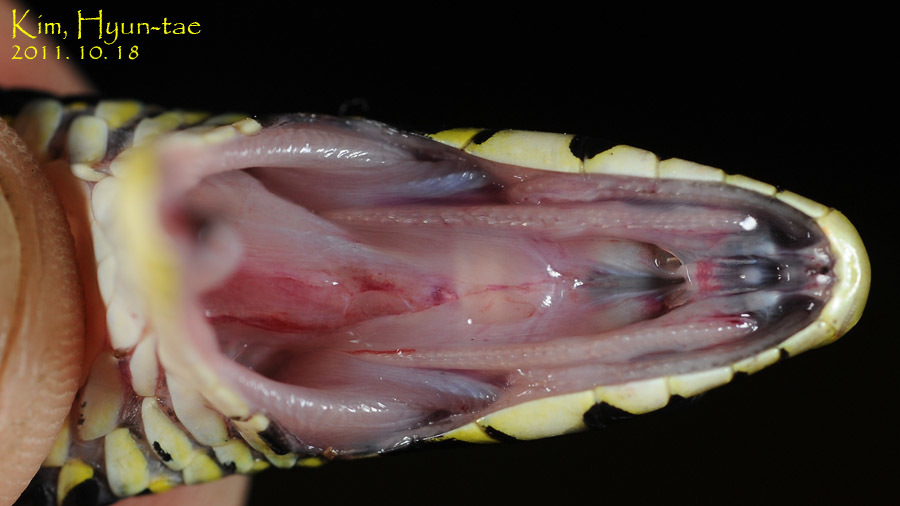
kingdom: Animalia
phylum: Chordata
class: Squamata
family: Colubridae
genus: Rhabdophis
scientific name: Rhabdophis tigrinus
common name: Tiger keelback
